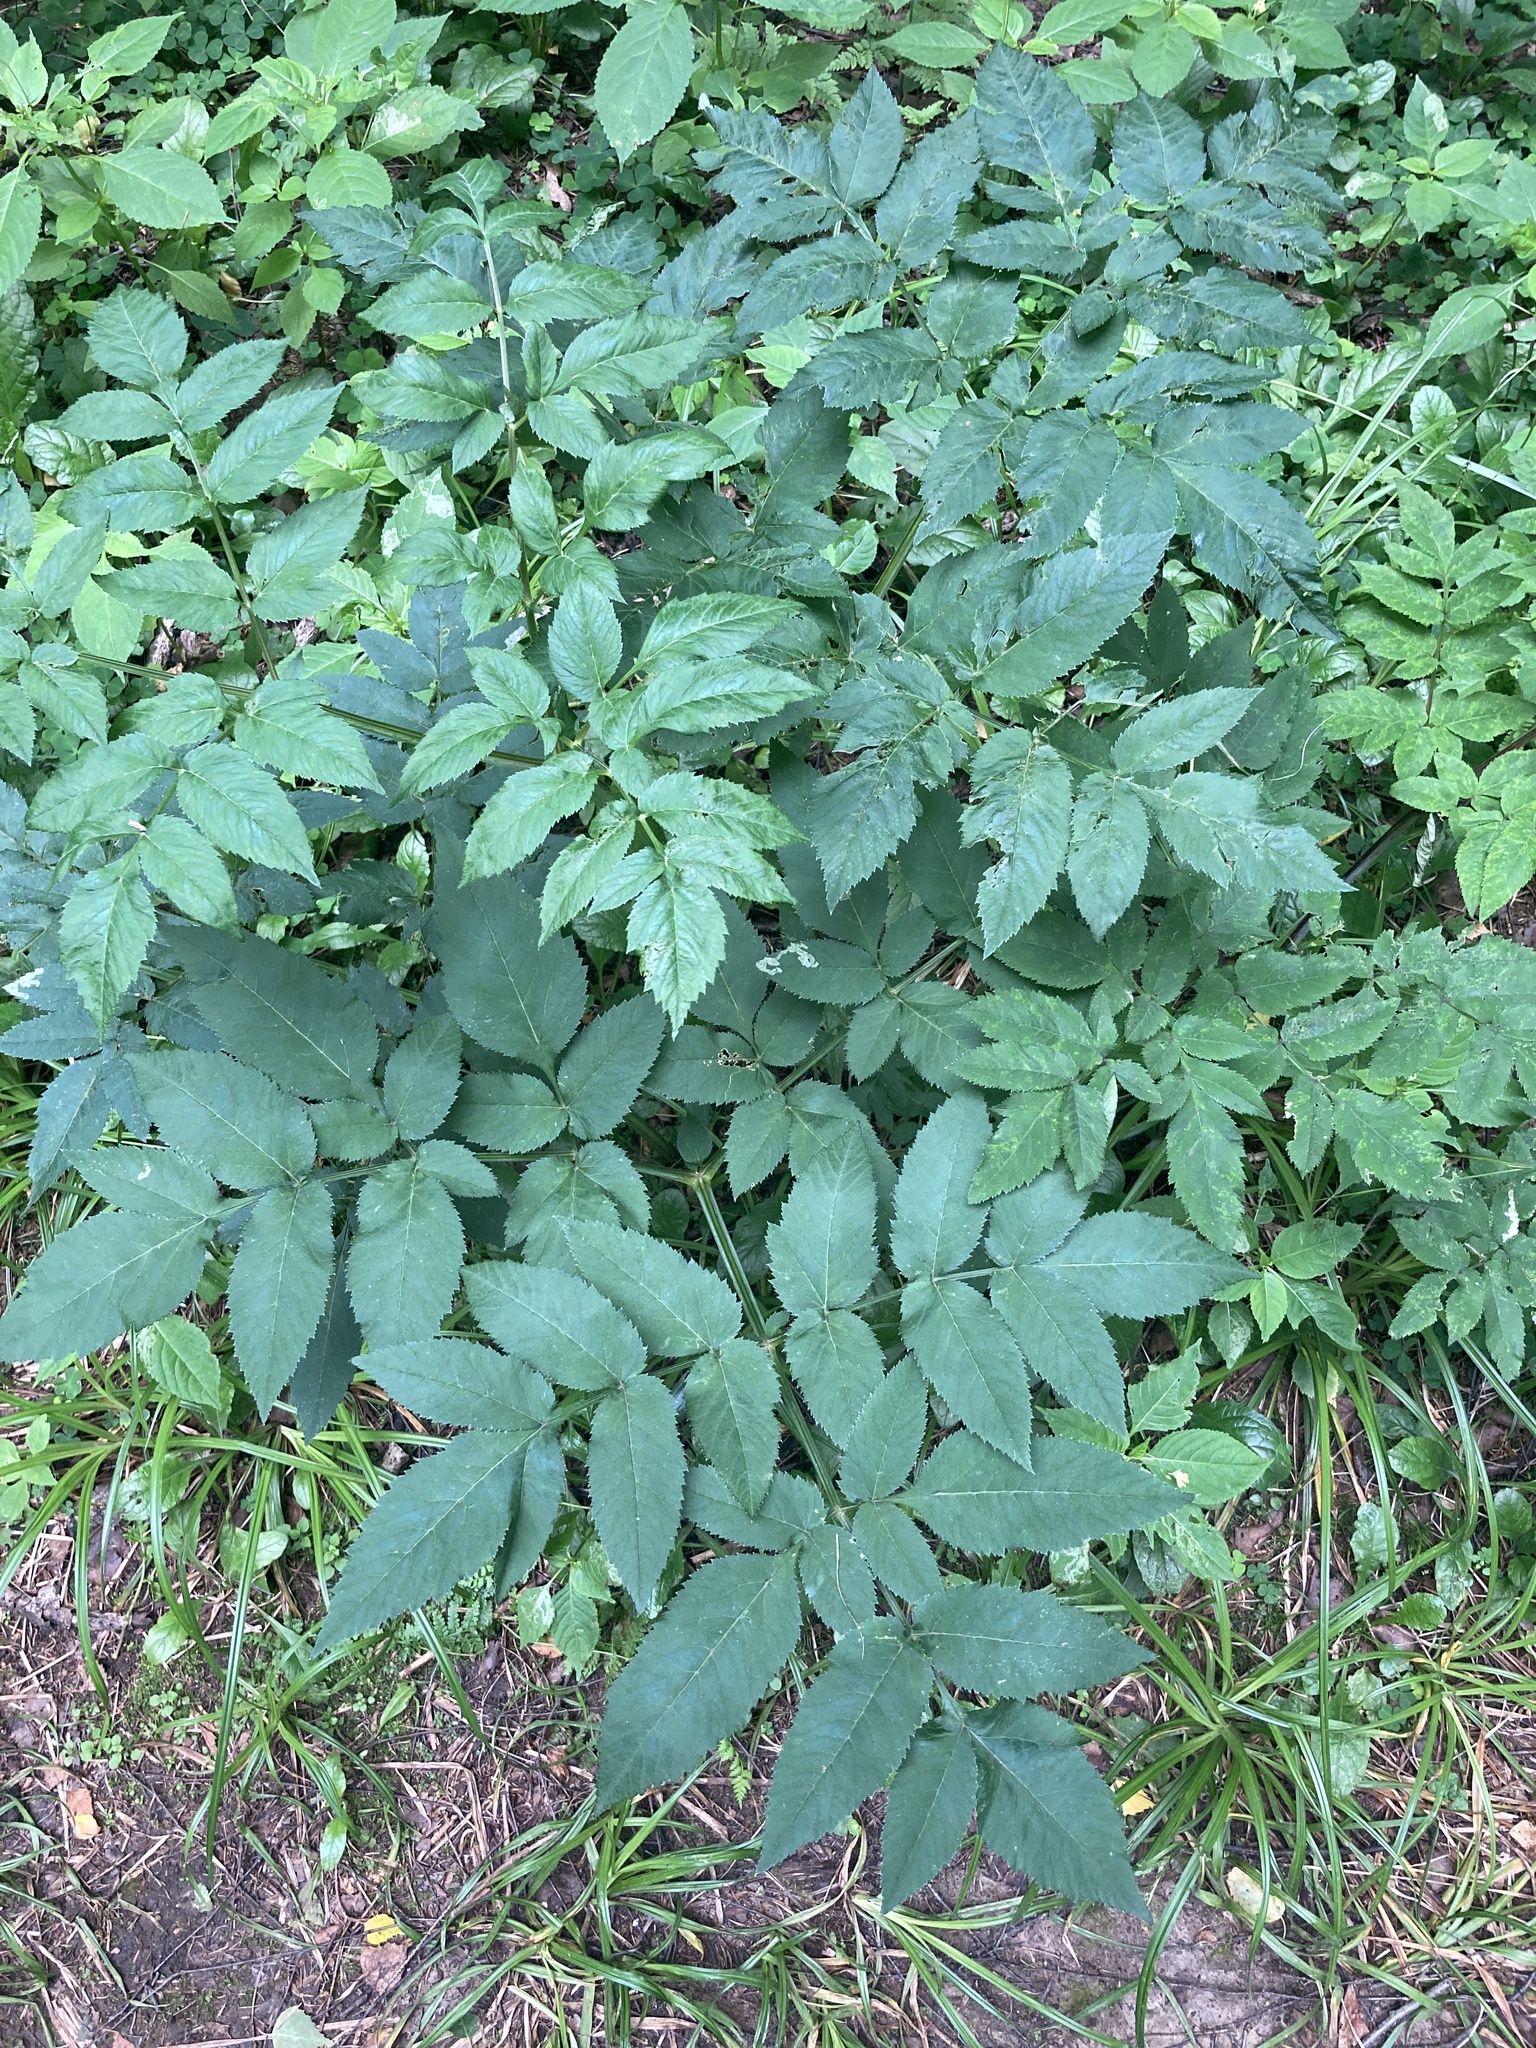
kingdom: Plantae
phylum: Tracheophyta
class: Magnoliopsida
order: Apiales
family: Apiaceae
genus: Angelica
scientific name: Angelica sylvestris
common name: Wild angelica
